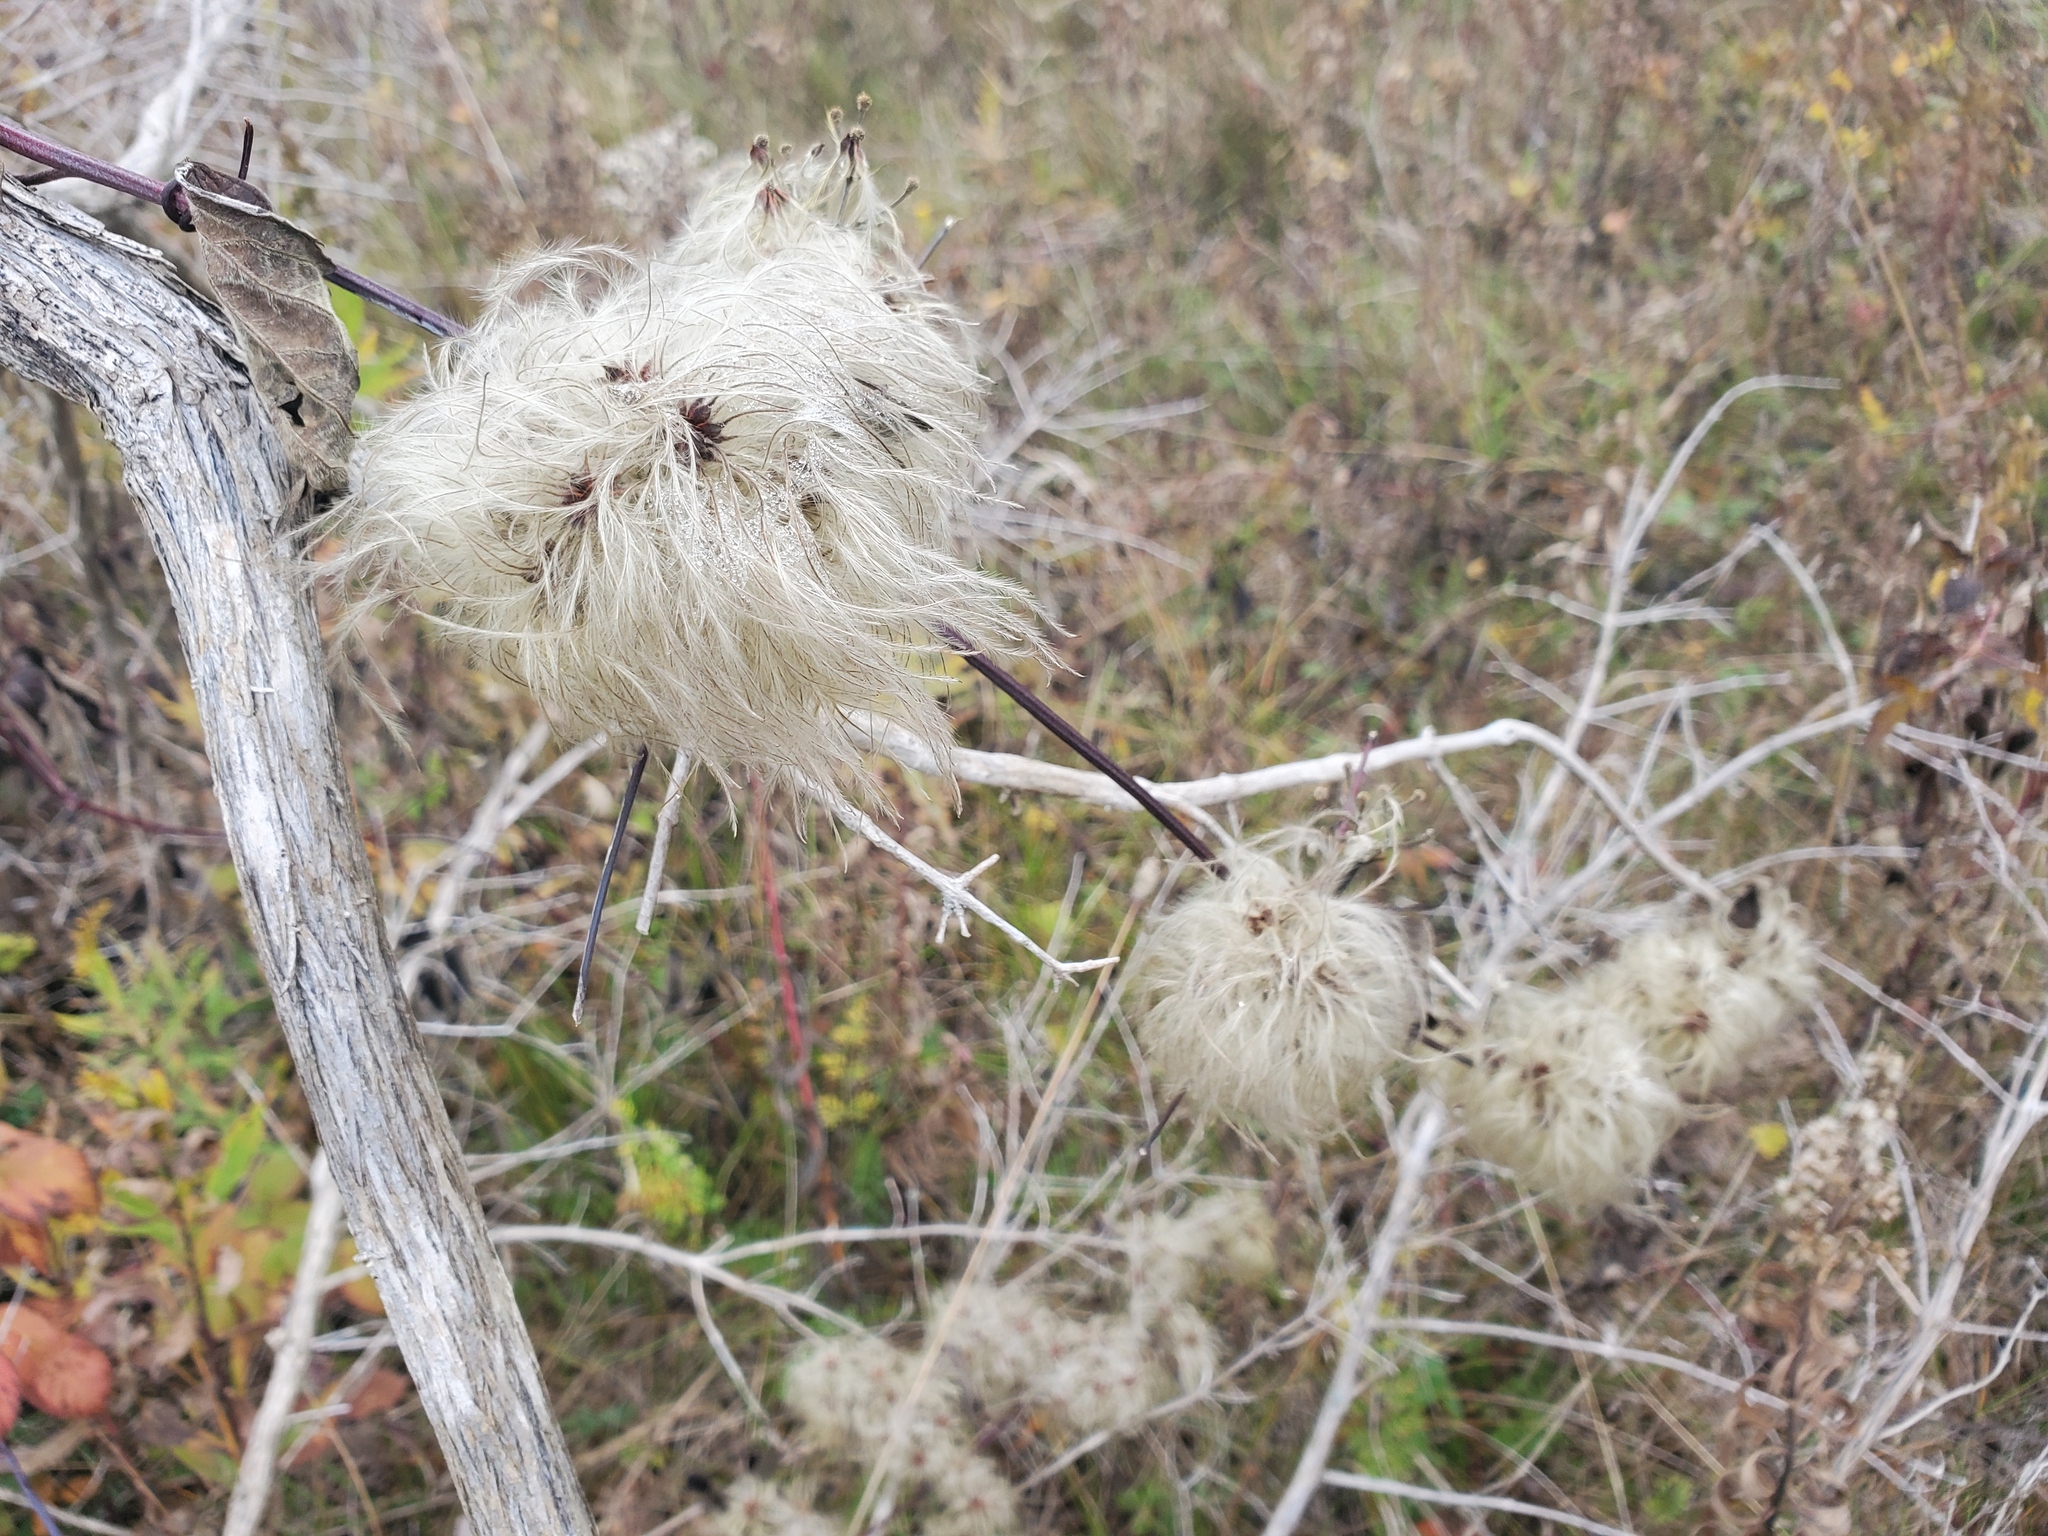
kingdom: Plantae
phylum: Tracheophyta
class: Magnoliopsida
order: Ranunculales
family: Ranunculaceae
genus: Clematis
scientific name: Clematis virginiana
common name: Virgin's-bower
